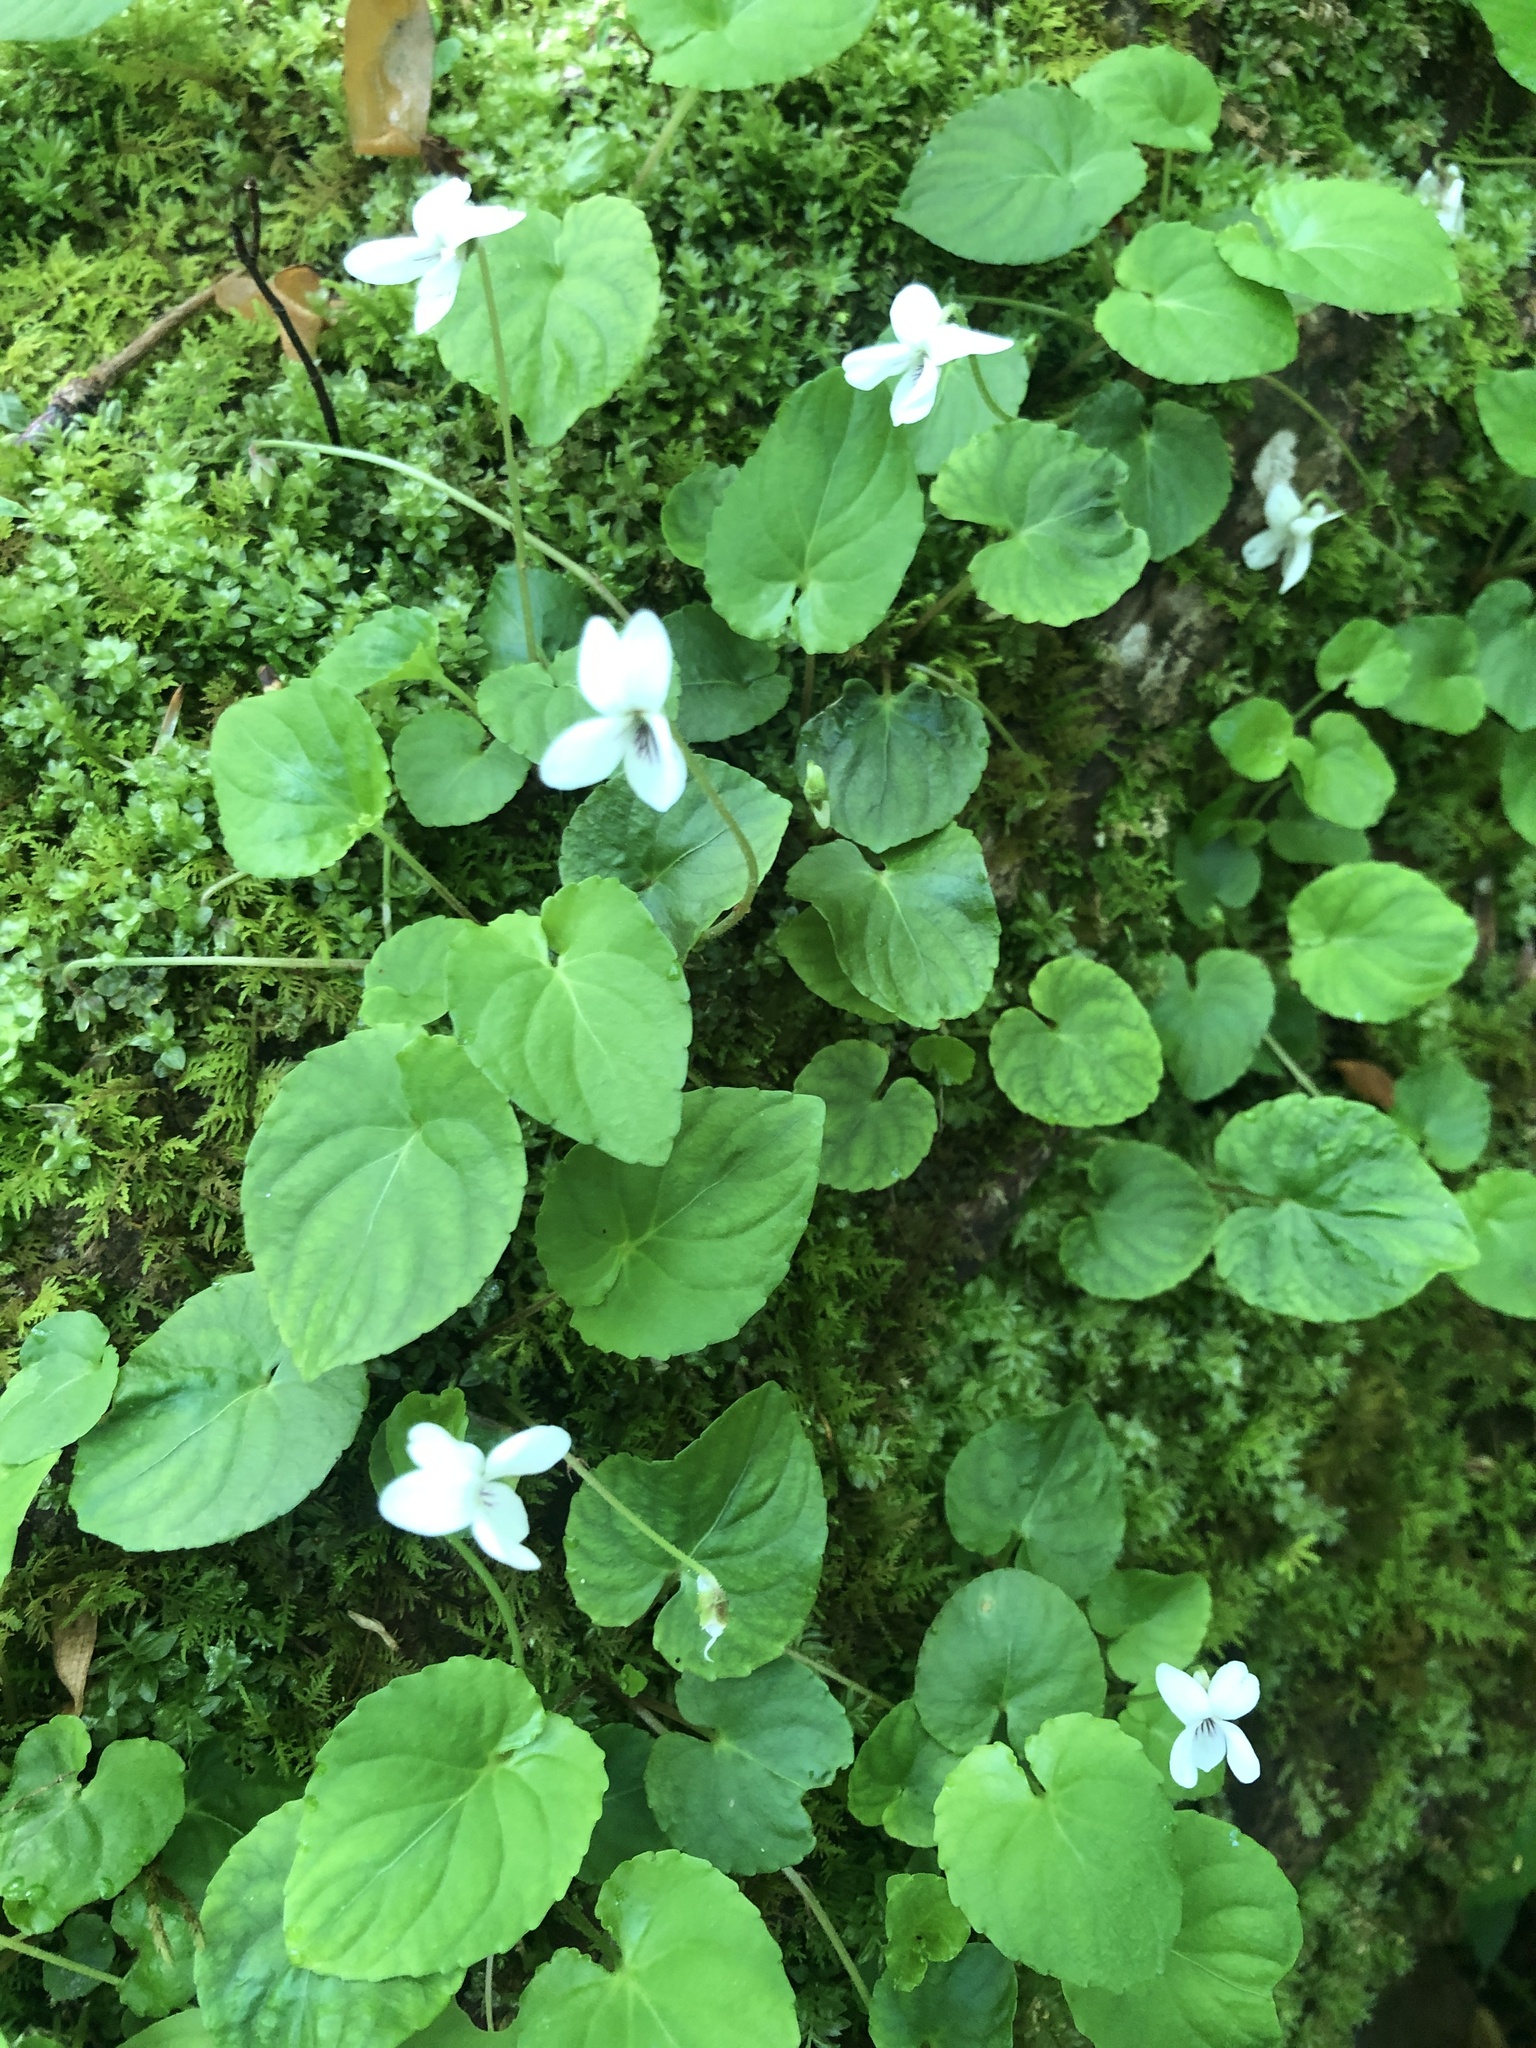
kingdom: Plantae
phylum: Tracheophyta
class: Magnoliopsida
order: Malpighiales
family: Violaceae
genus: Viola
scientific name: Viola blanda
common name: Sweet white violet
